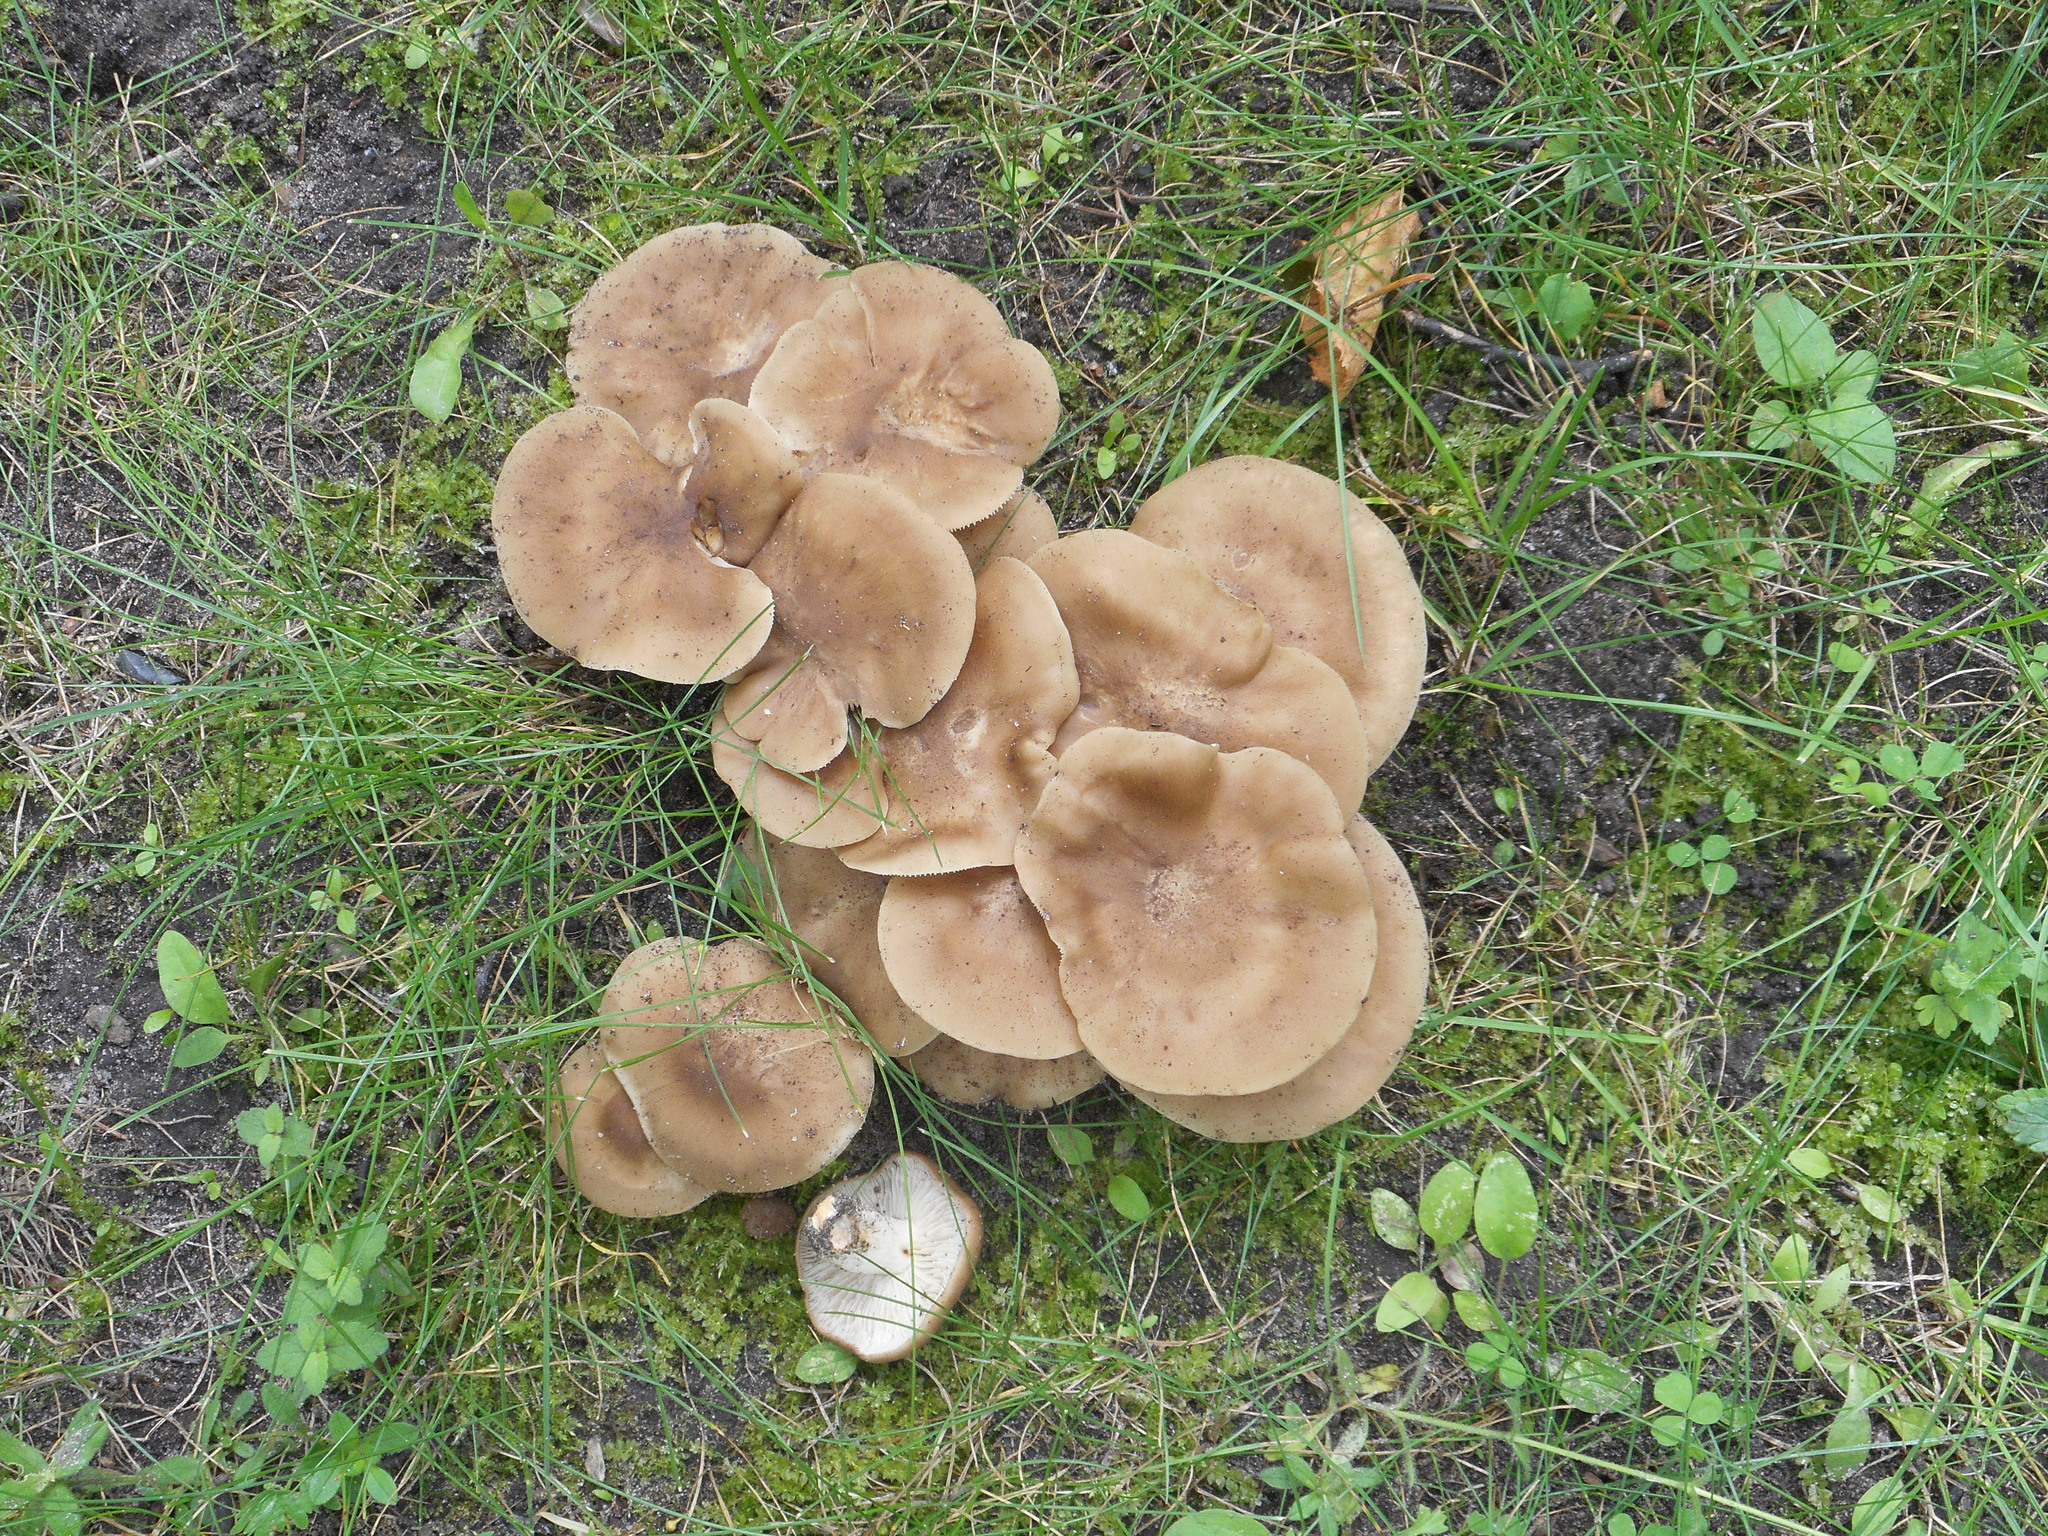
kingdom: Fungi
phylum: Basidiomycota
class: Agaricomycetes
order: Agaricales
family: Lyophyllaceae
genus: Lyophyllum
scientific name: Lyophyllum decastes
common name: Clustered domecap
